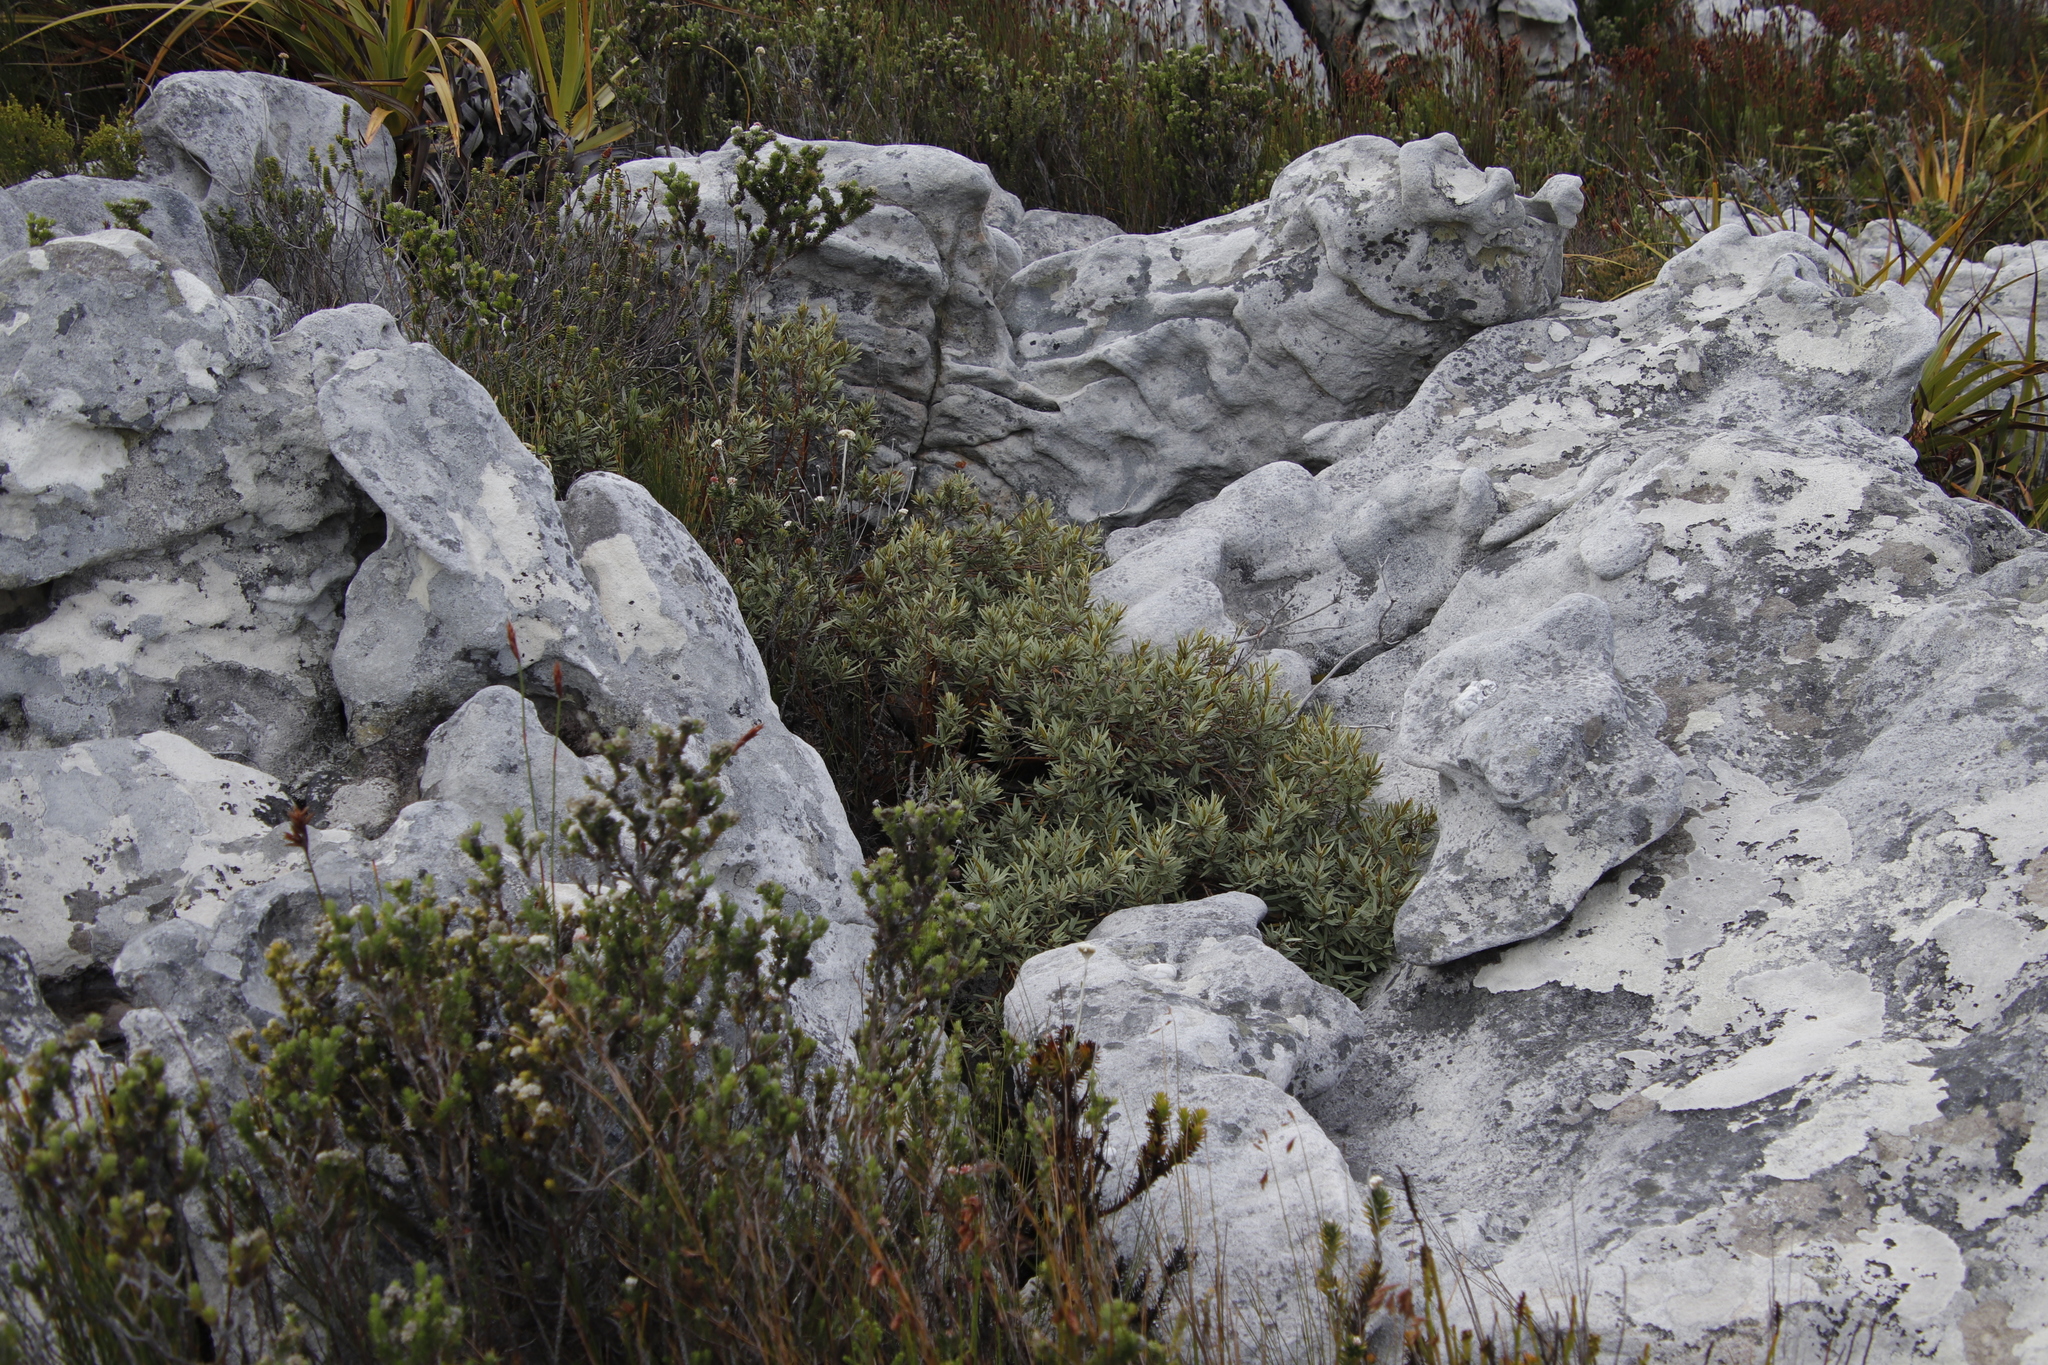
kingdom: Plantae
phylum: Tracheophyta
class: Magnoliopsida
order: Cornales
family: Grubbiaceae
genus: Grubbia
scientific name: Grubbia tomentosa
